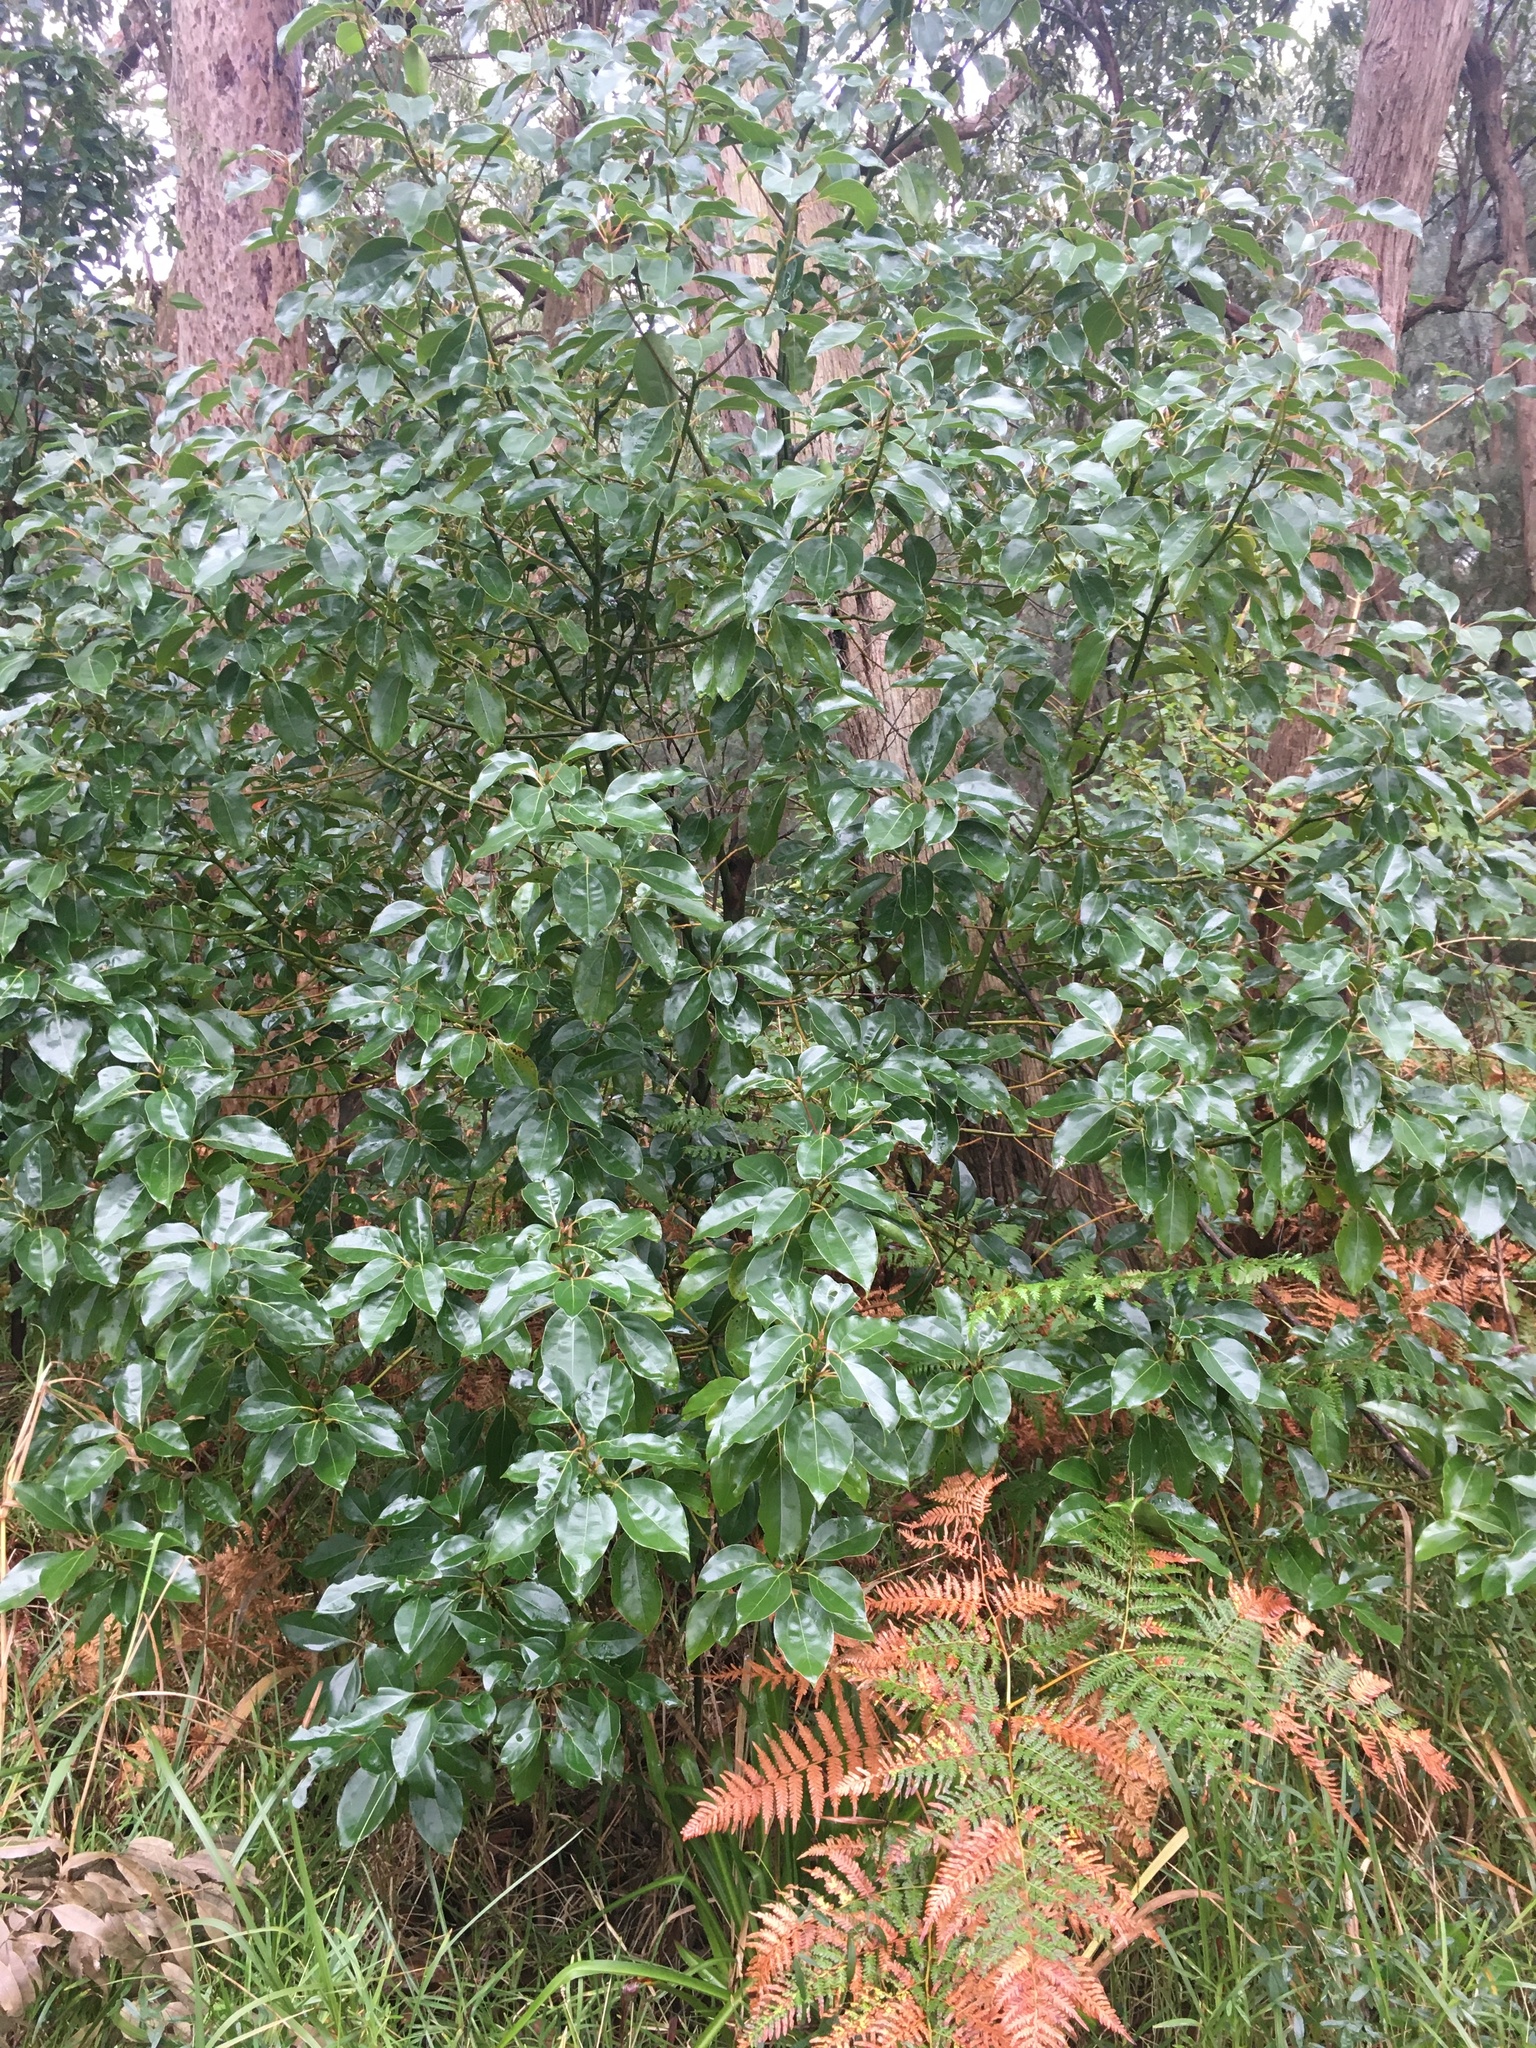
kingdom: Plantae
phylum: Tracheophyta
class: Magnoliopsida
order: Laurales
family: Lauraceae
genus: Cinnamomum
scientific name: Cinnamomum camphora
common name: Camphortree
